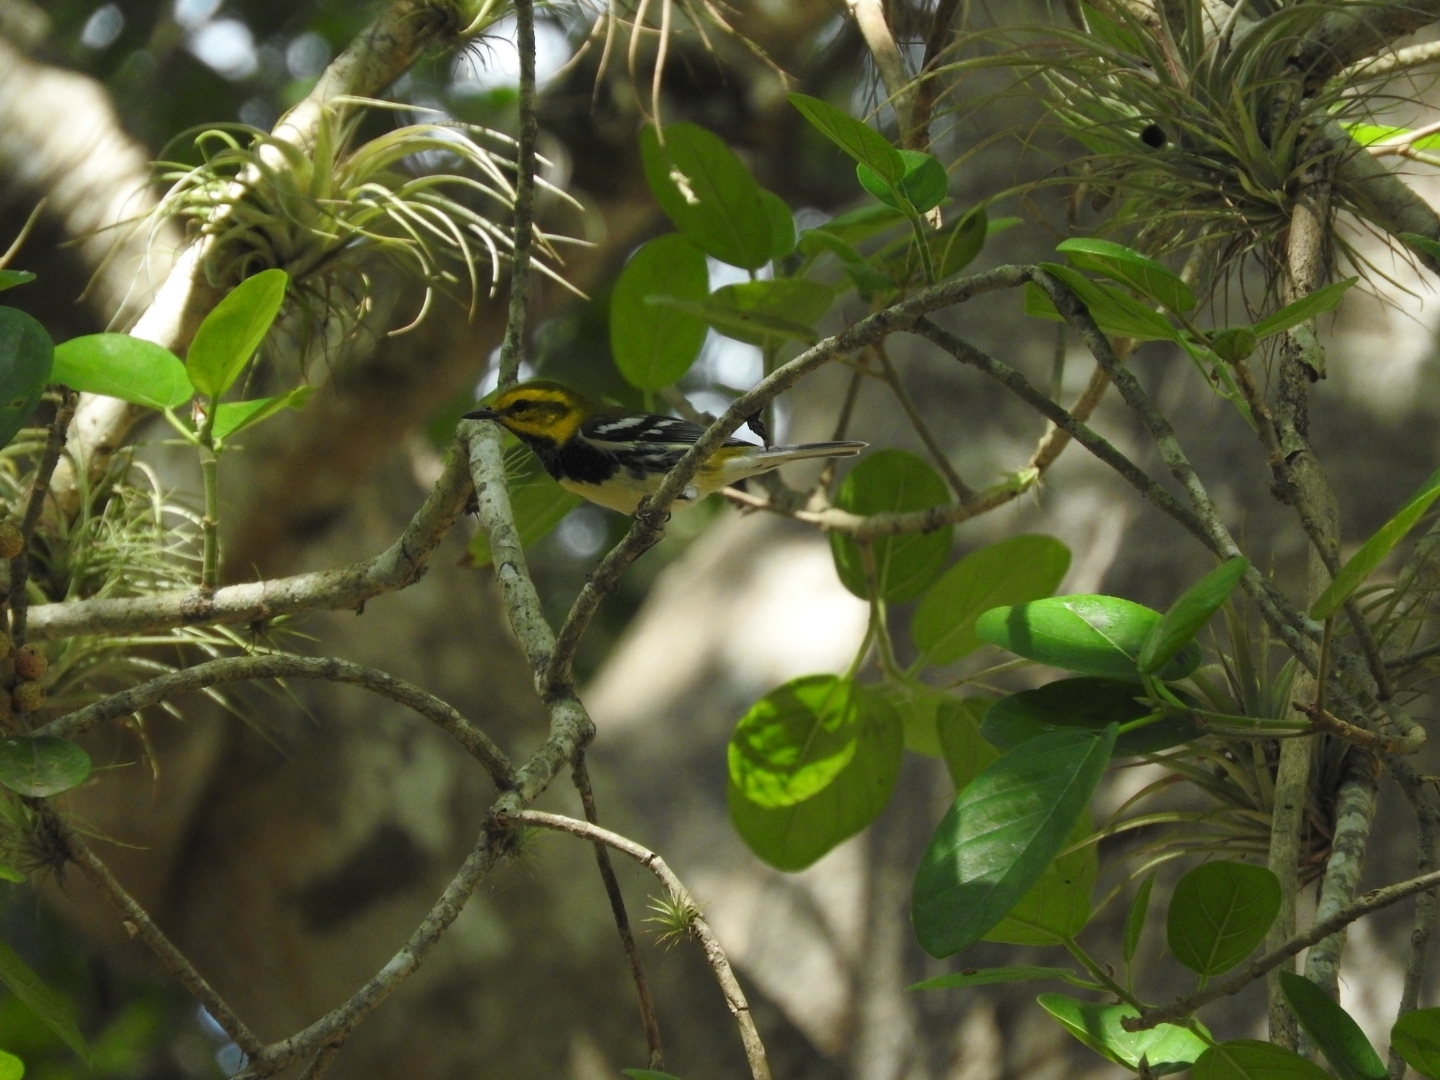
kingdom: Animalia
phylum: Chordata
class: Aves
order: Passeriformes
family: Parulidae
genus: Setophaga
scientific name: Setophaga virens
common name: Black-throated green warbler
